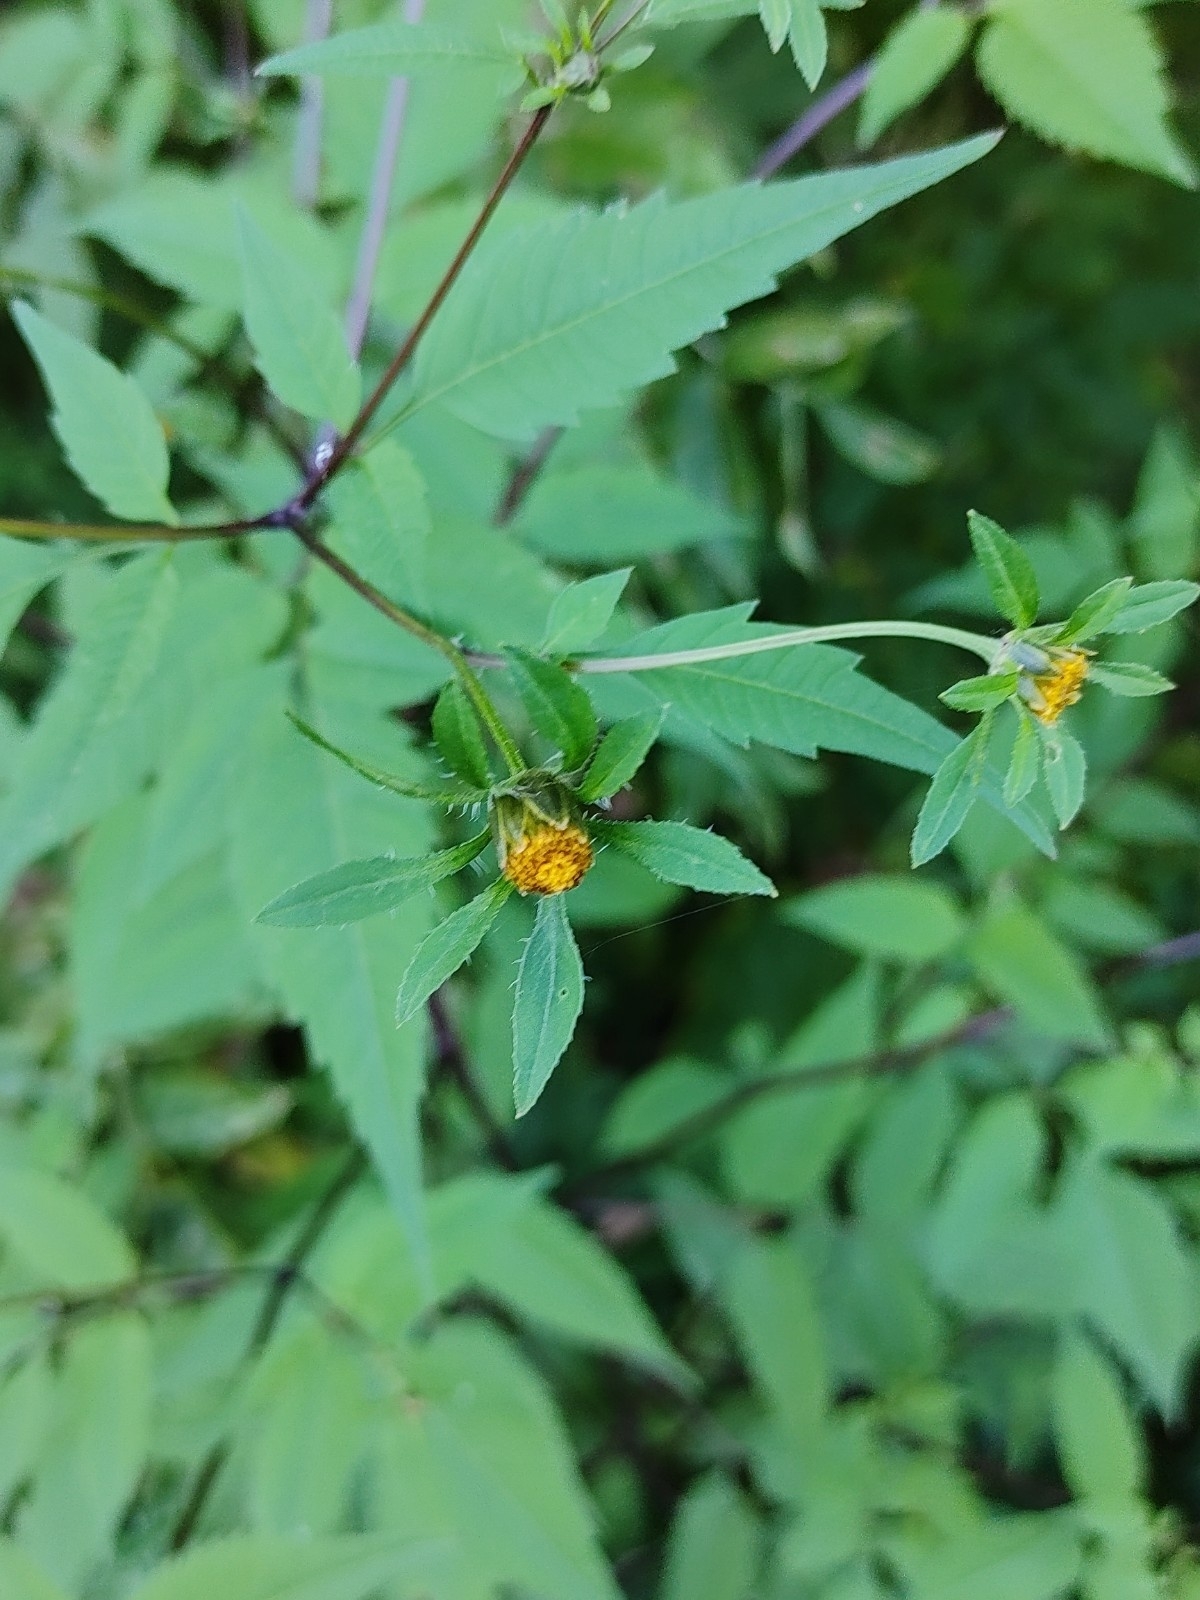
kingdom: Plantae
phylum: Tracheophyta
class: Magnoliopsida
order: Asterales
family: Asteraceae
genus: Bidens
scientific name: Bidens frondosa
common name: Beggarticks
